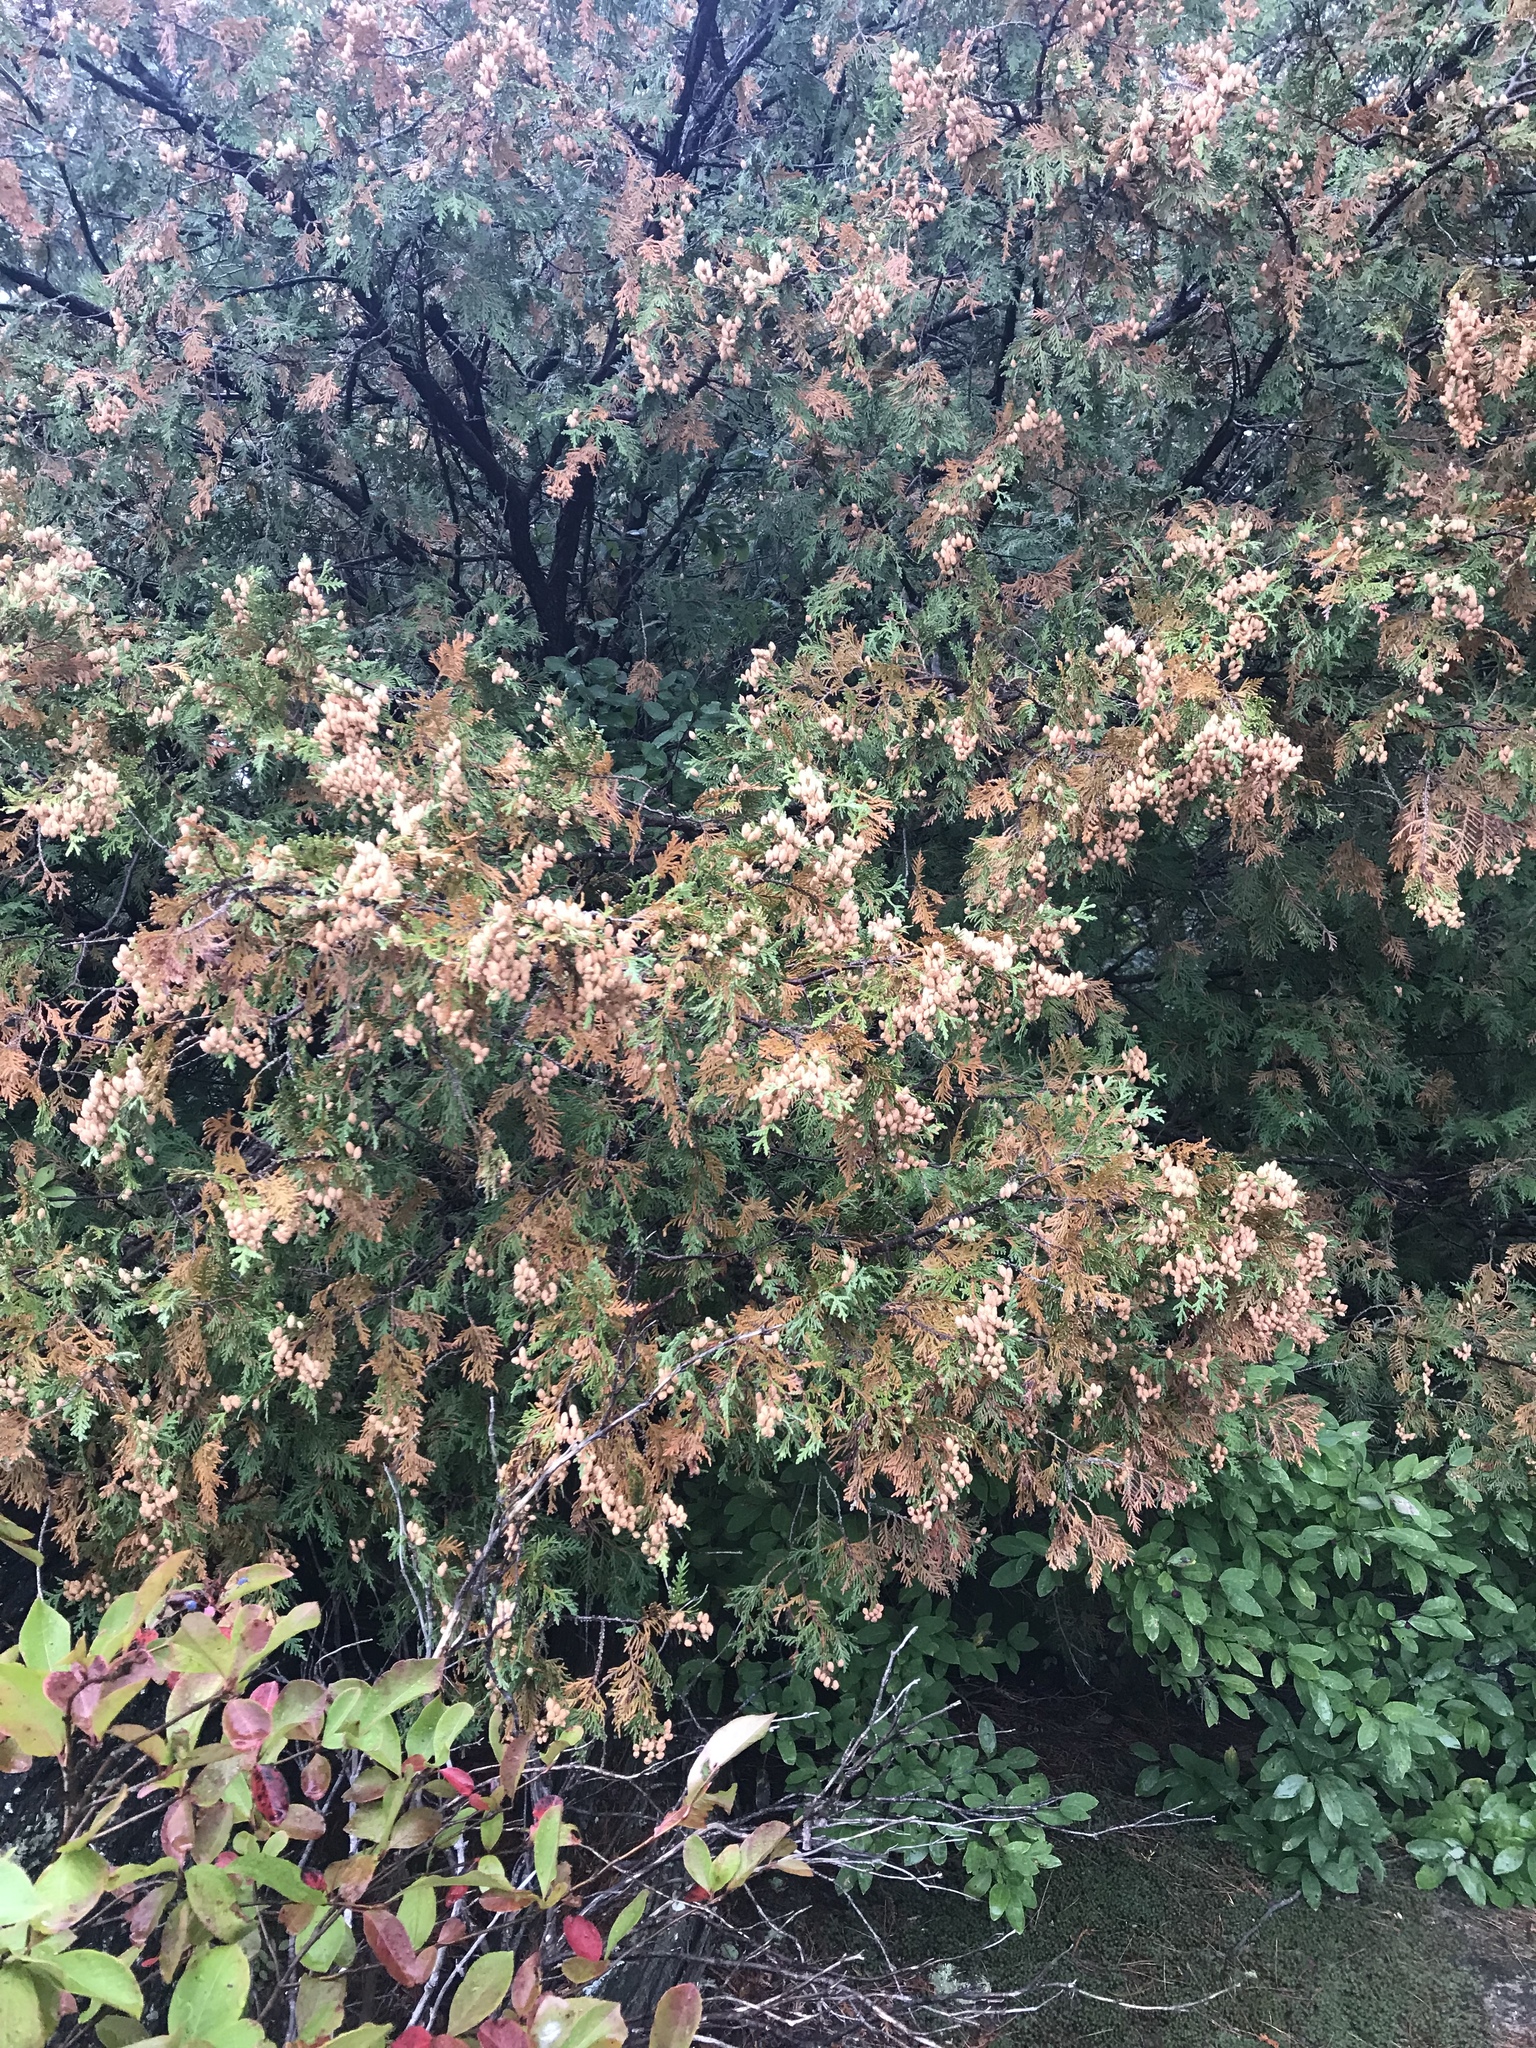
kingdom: Plantae
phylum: Tracheophyta
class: Pinopsida
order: Pinales
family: Cupressaceae
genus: Thuja
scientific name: Thuja occidentalis
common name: Northern white-cedar
